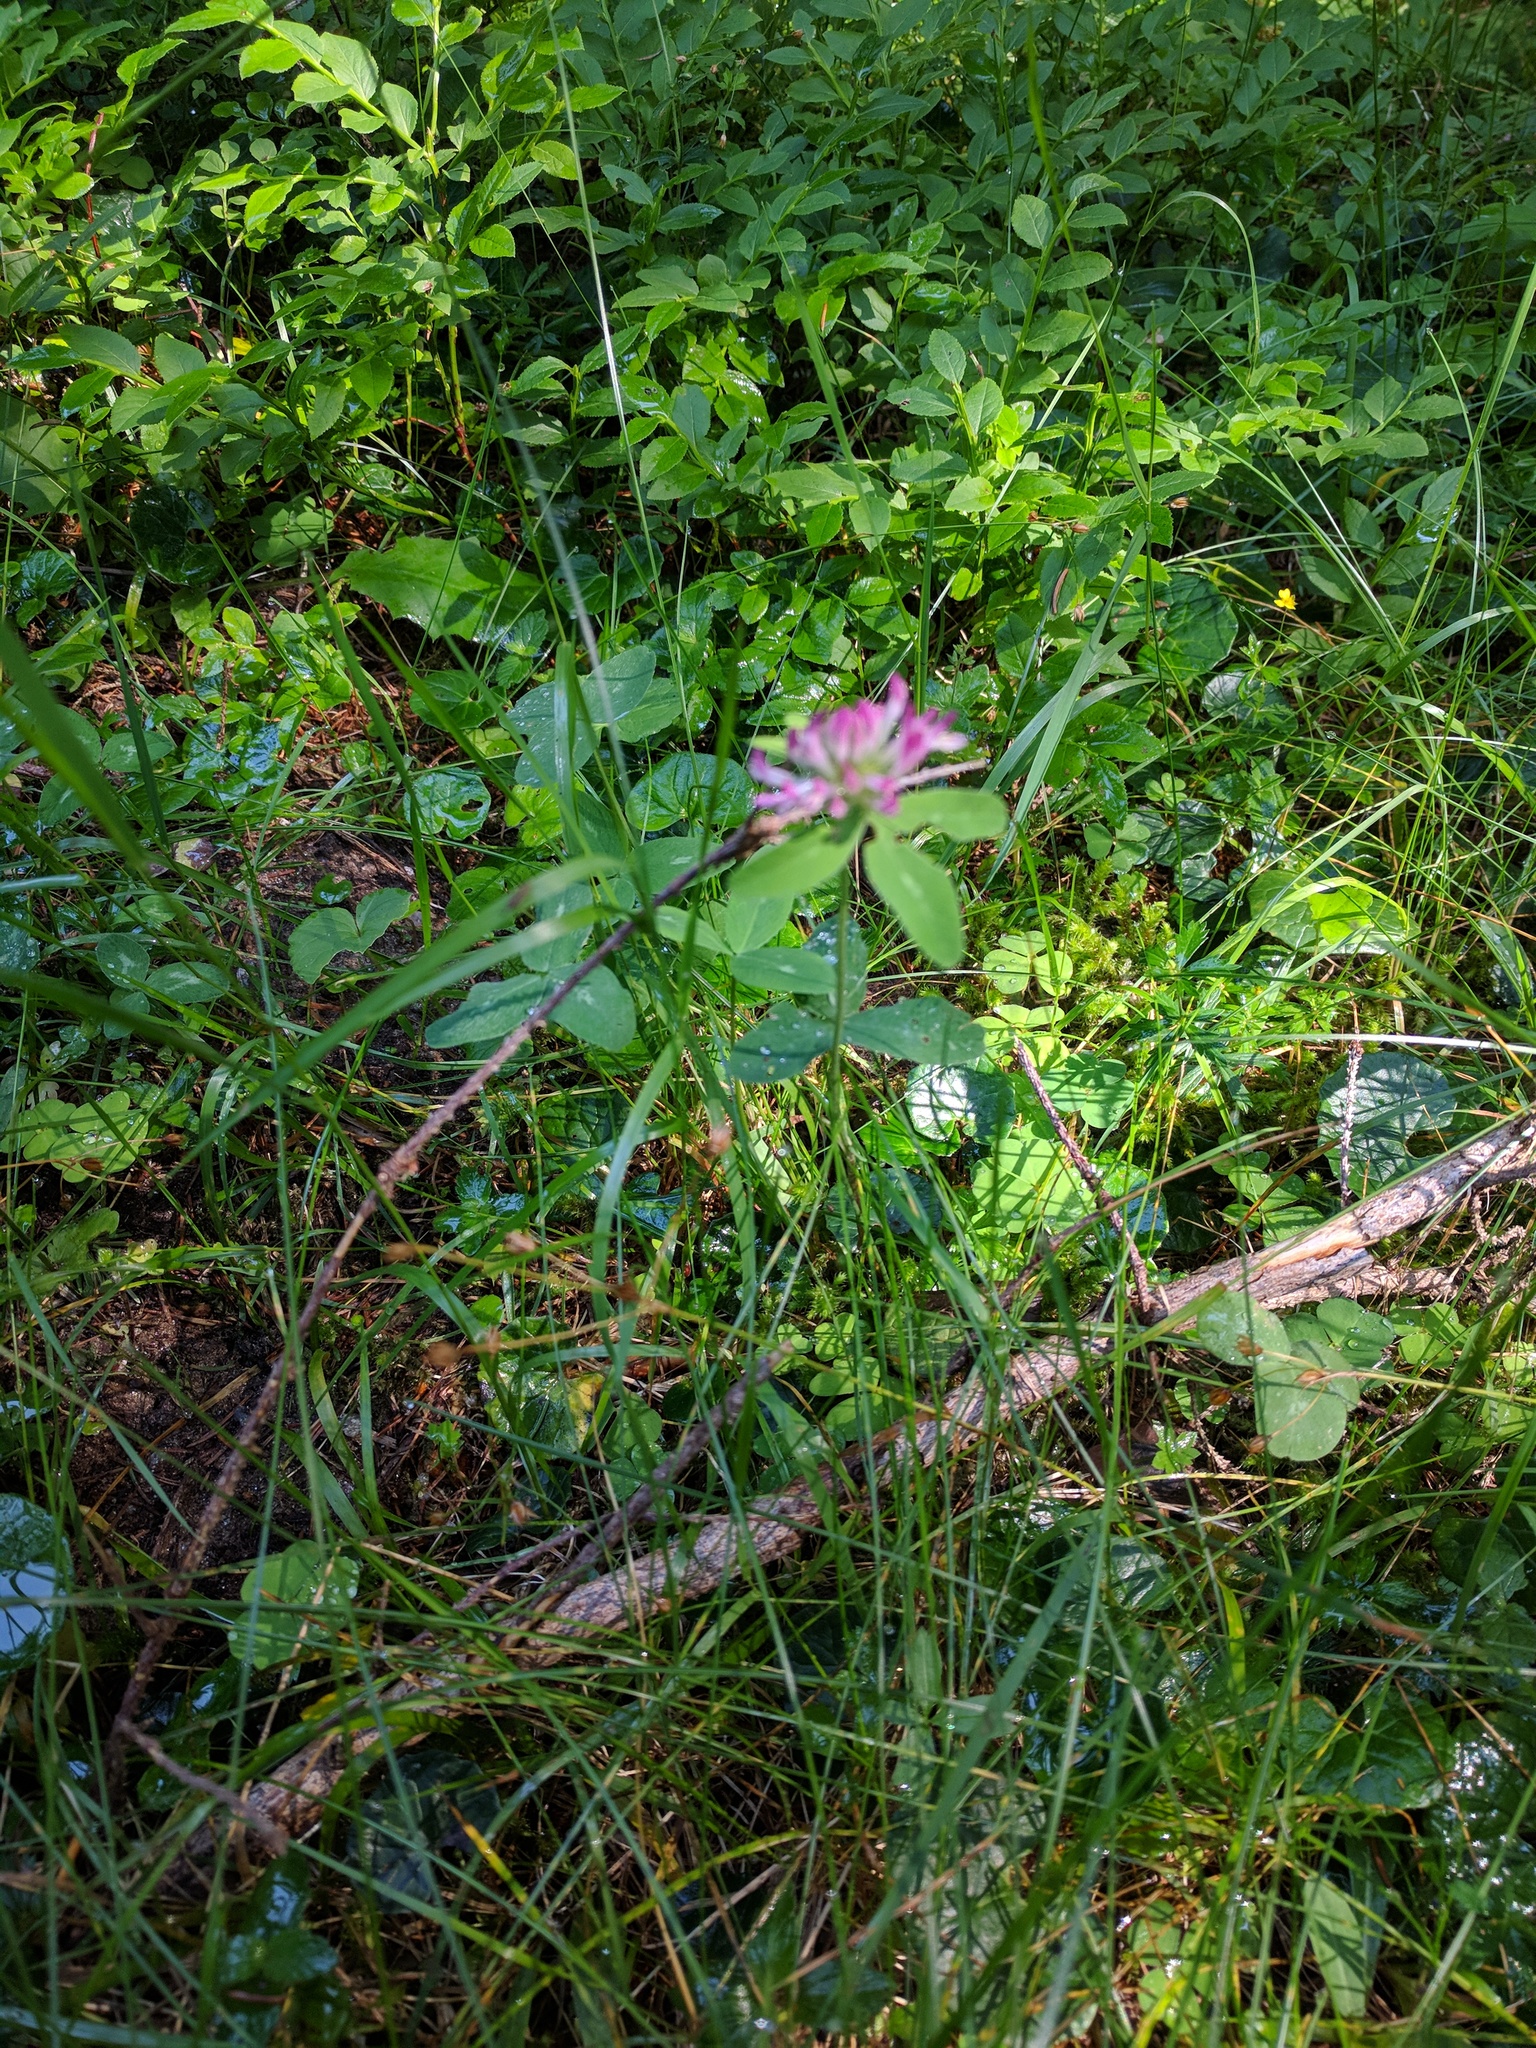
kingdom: Plantae
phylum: Tracheophyta
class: Magnoliopsida
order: Fabales
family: Fabaceae
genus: Trifolium
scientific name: Trifolium medium
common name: Zigzag clover
